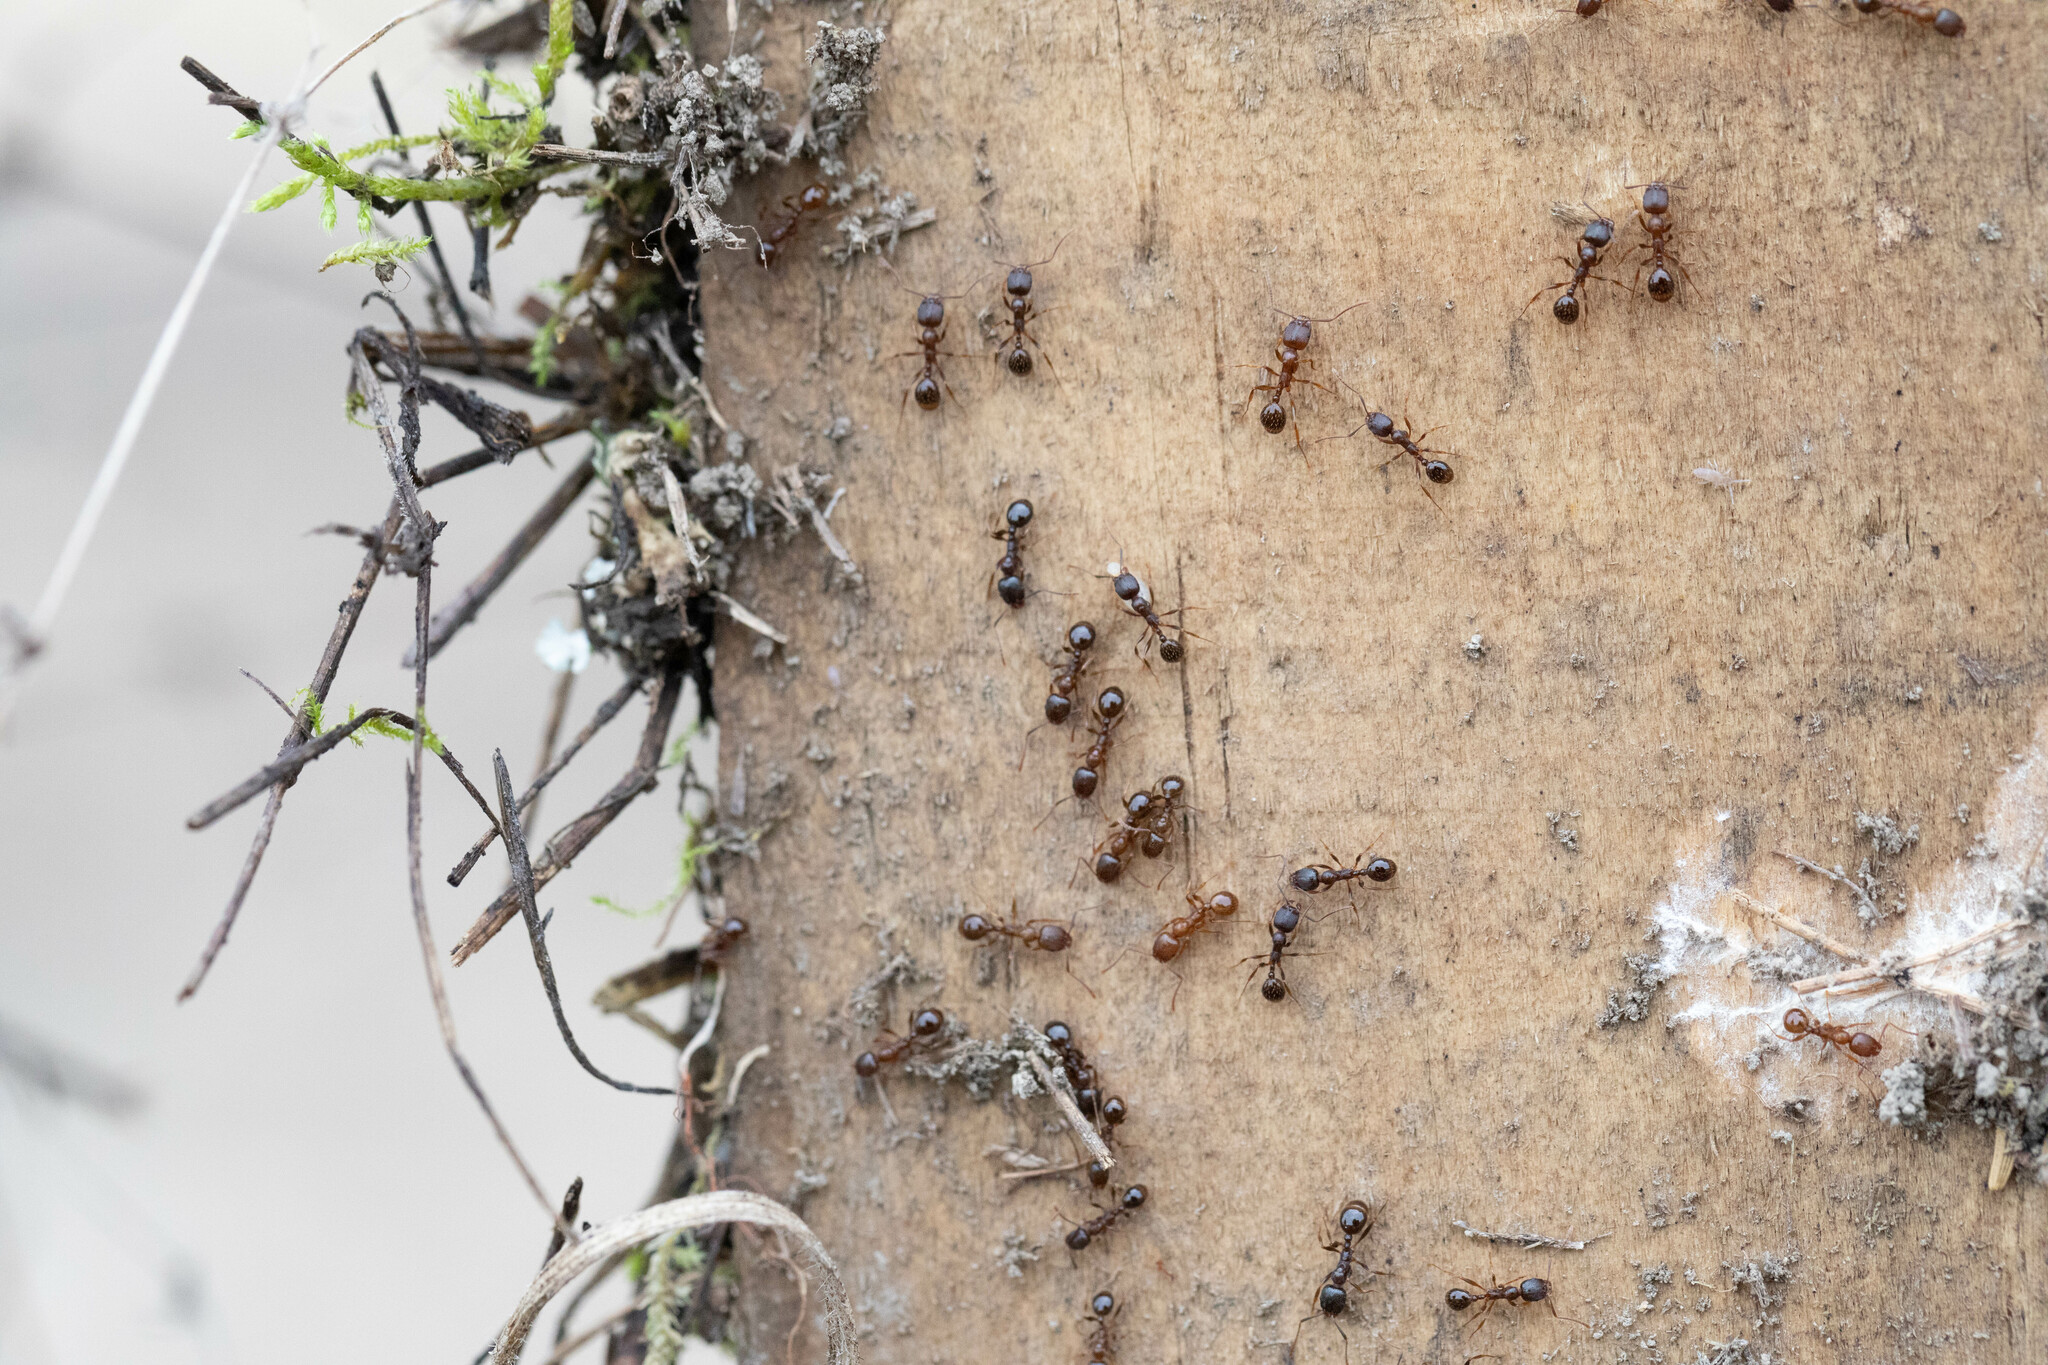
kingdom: Animalia
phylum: Arthropoda
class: Insecta
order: Hymenoptera
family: Formicidae
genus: Aphaenogaster
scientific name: Aphaenogaster occidentalis
